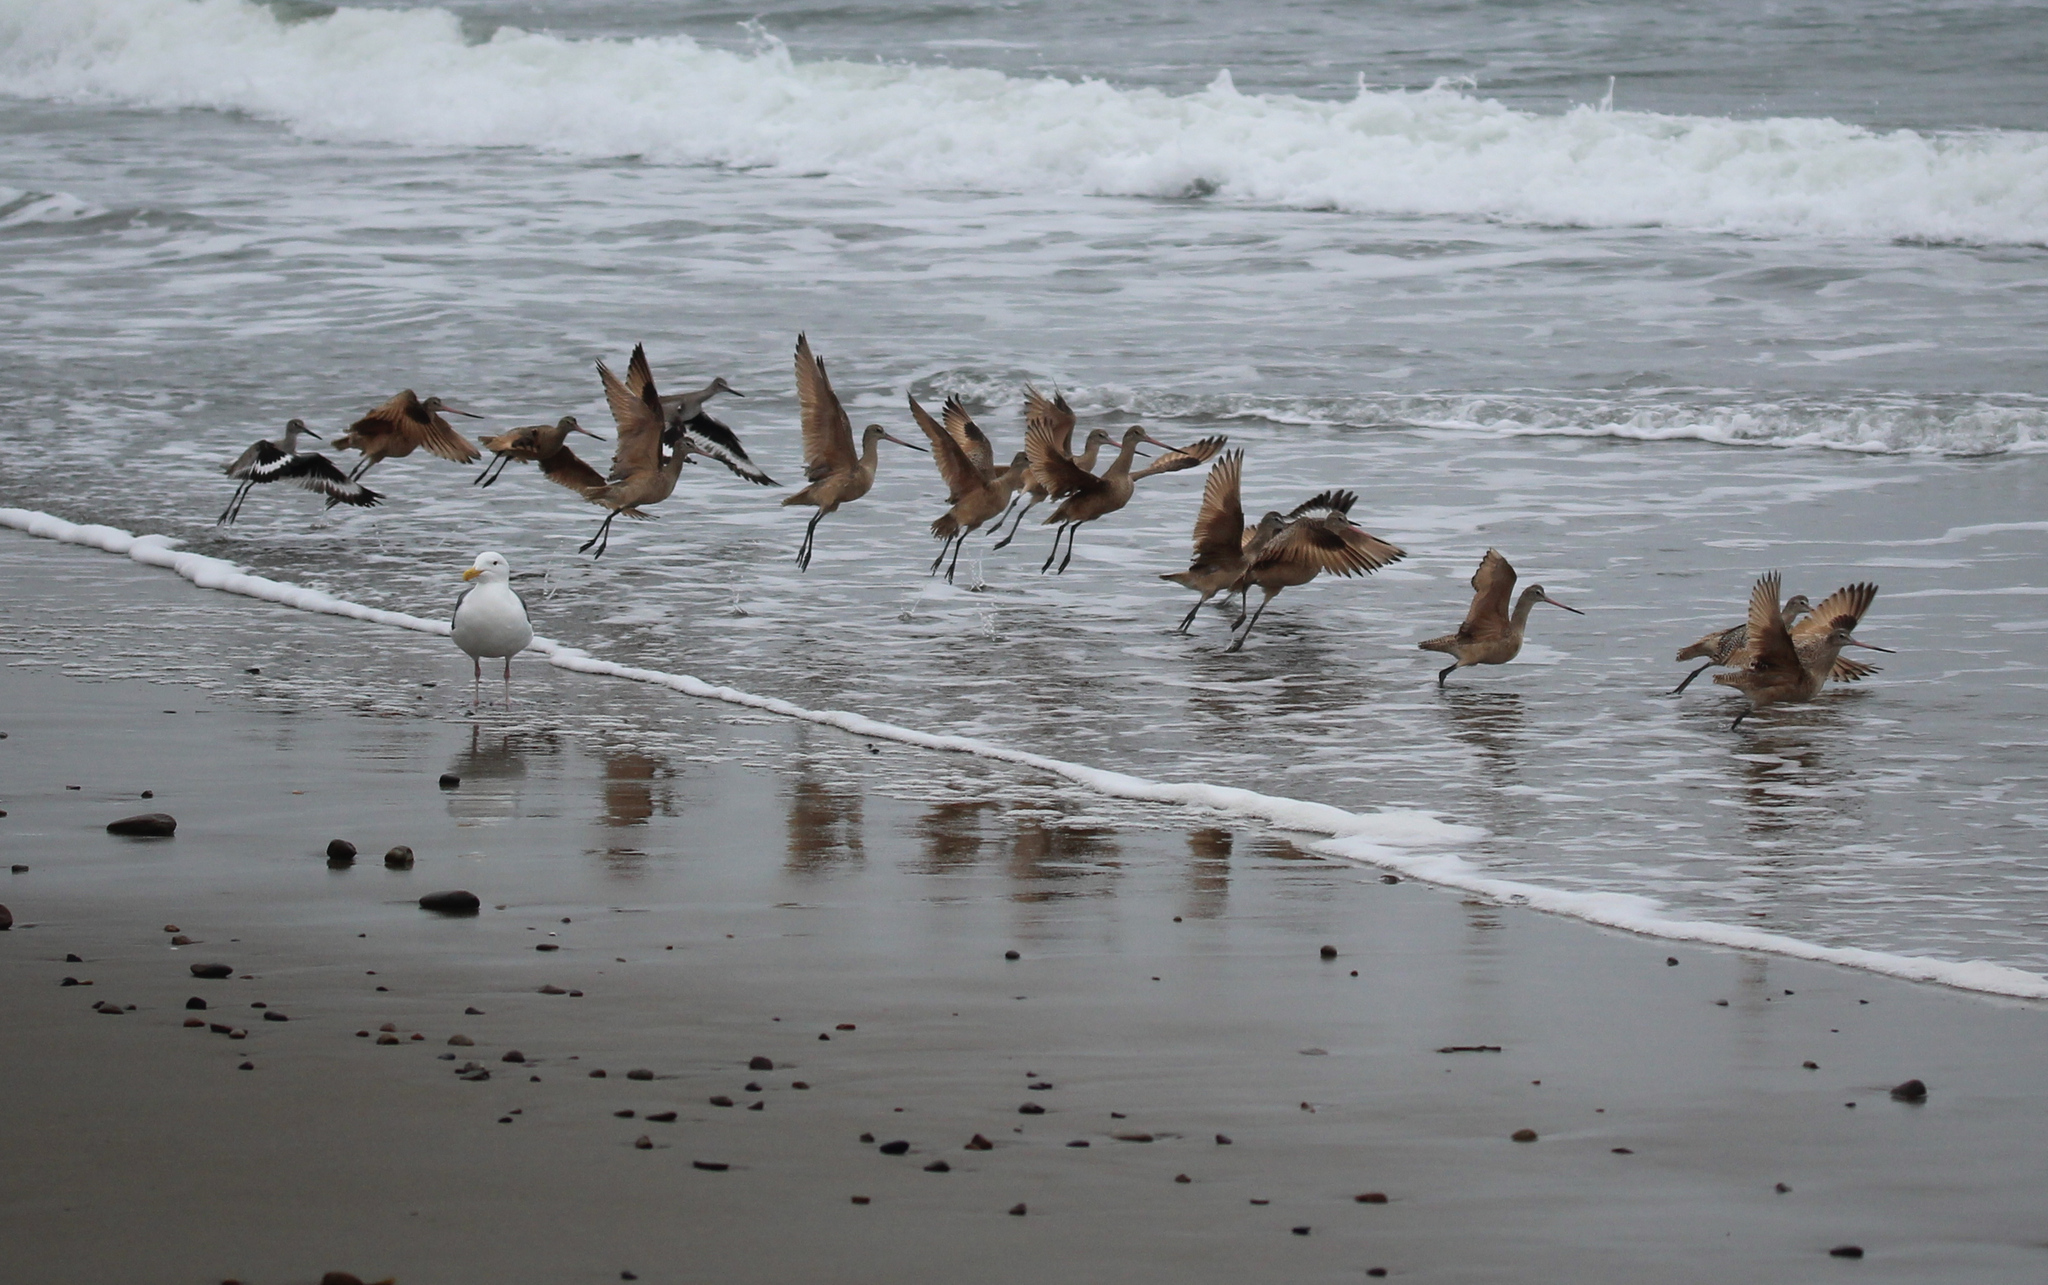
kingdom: Animalia
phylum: Chordata
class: Aves
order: Charadriiformes
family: Scolopacidae
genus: Limosa
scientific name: Limosa fedoa
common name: Marbled godwit
